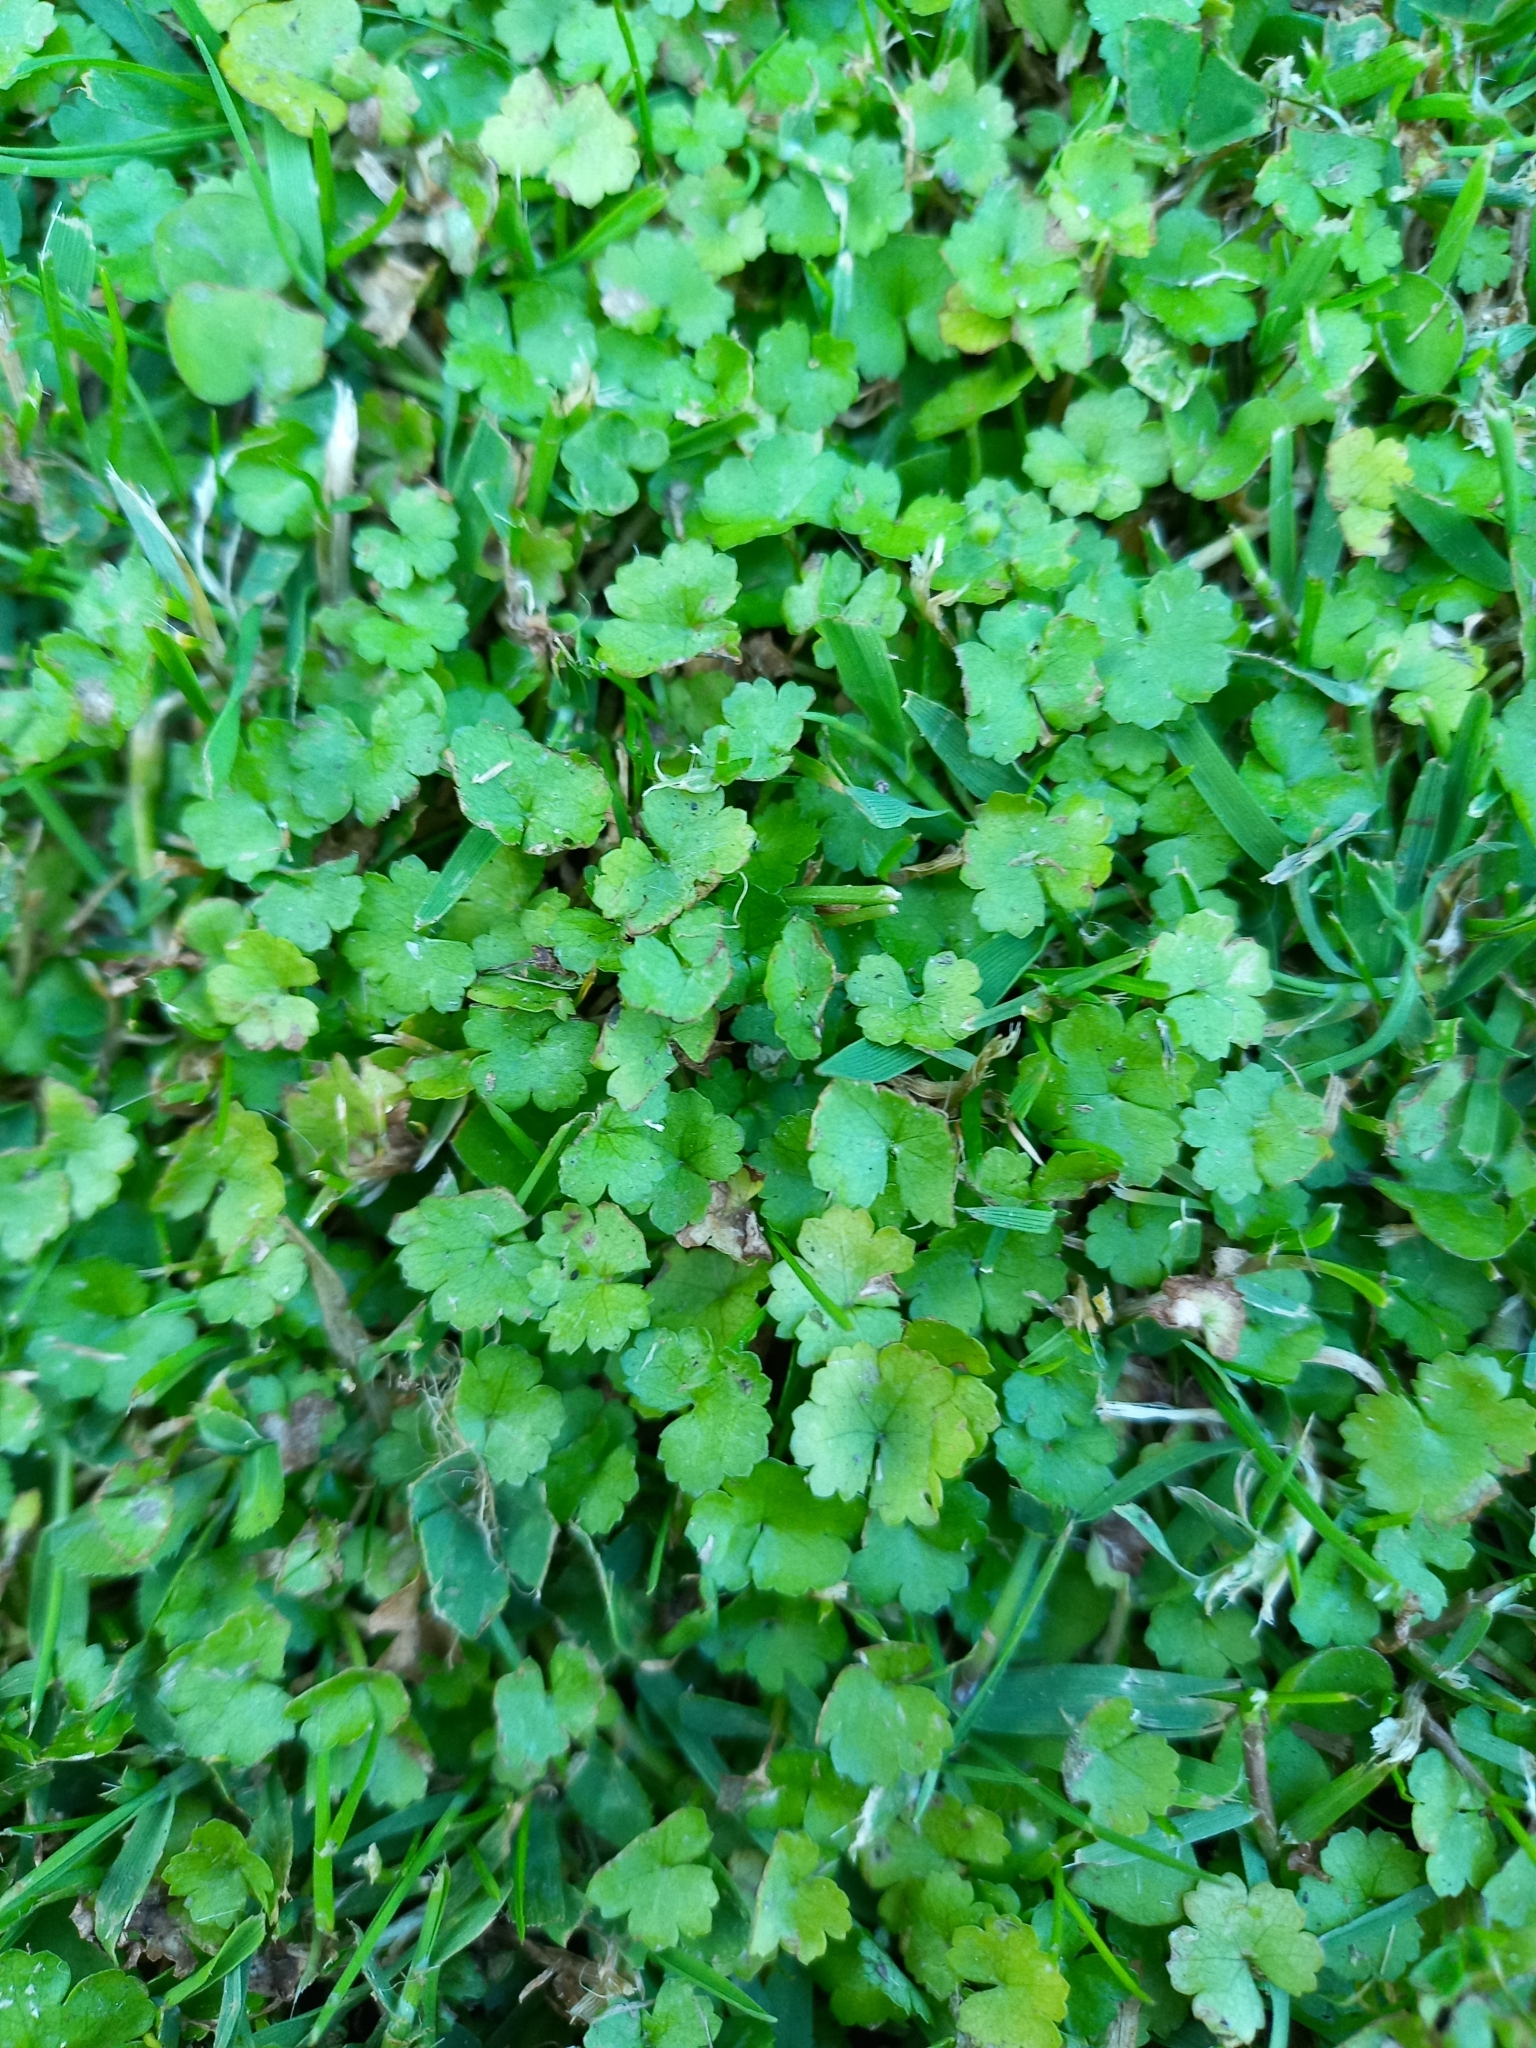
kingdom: Plantae
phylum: Tracheophyta
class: Magnoliopsida
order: Apiales
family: Araliaceae
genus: Hydrocotyle
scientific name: Hydrocotyle heteromeria
